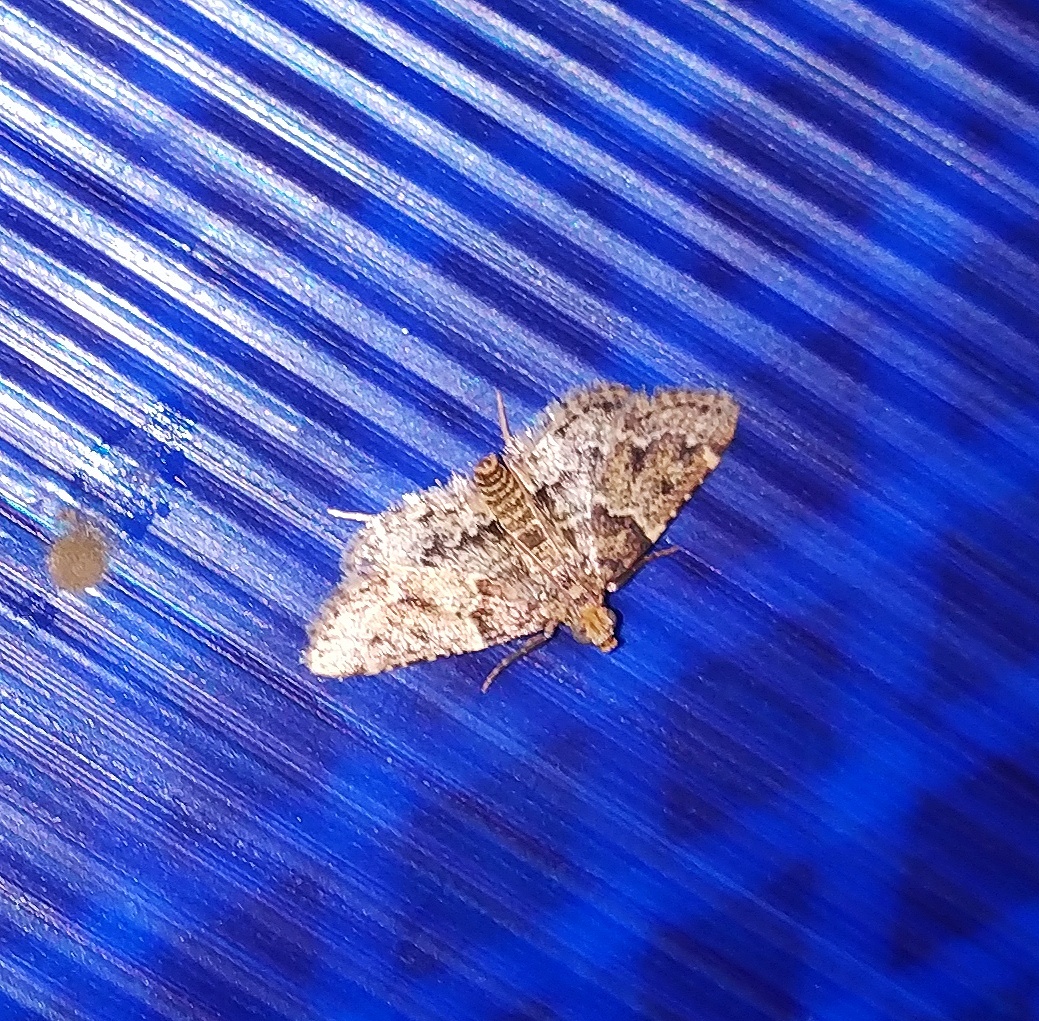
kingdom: Animalia
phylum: Arthropoda
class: Insecta
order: Lepidoptera
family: Pyralidae
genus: Pyralis
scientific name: Pyralis manihotalis
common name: Moth
